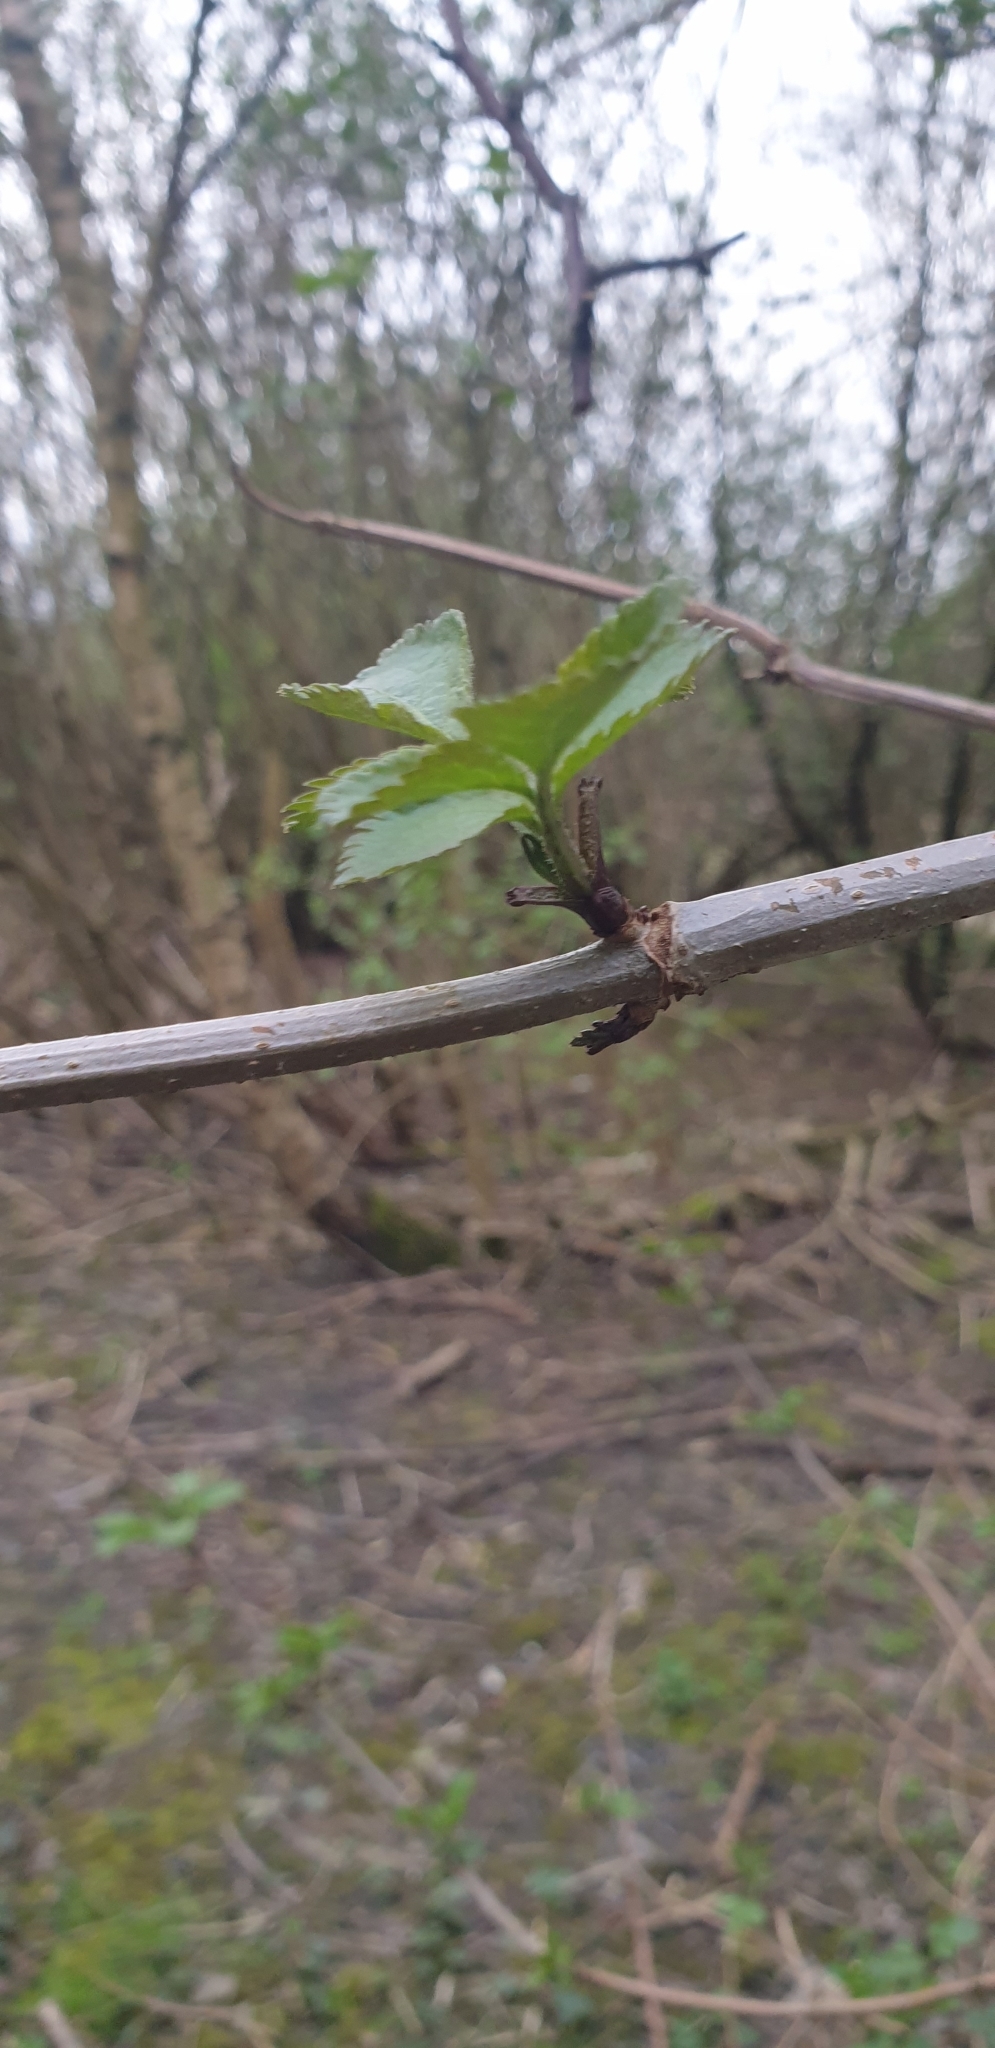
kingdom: Plantae
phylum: Tracheophyta
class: Magnoliopsida
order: Dipsacales
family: Viburnaceae
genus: Sambucus
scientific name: Sambucus nigra
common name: Elder
